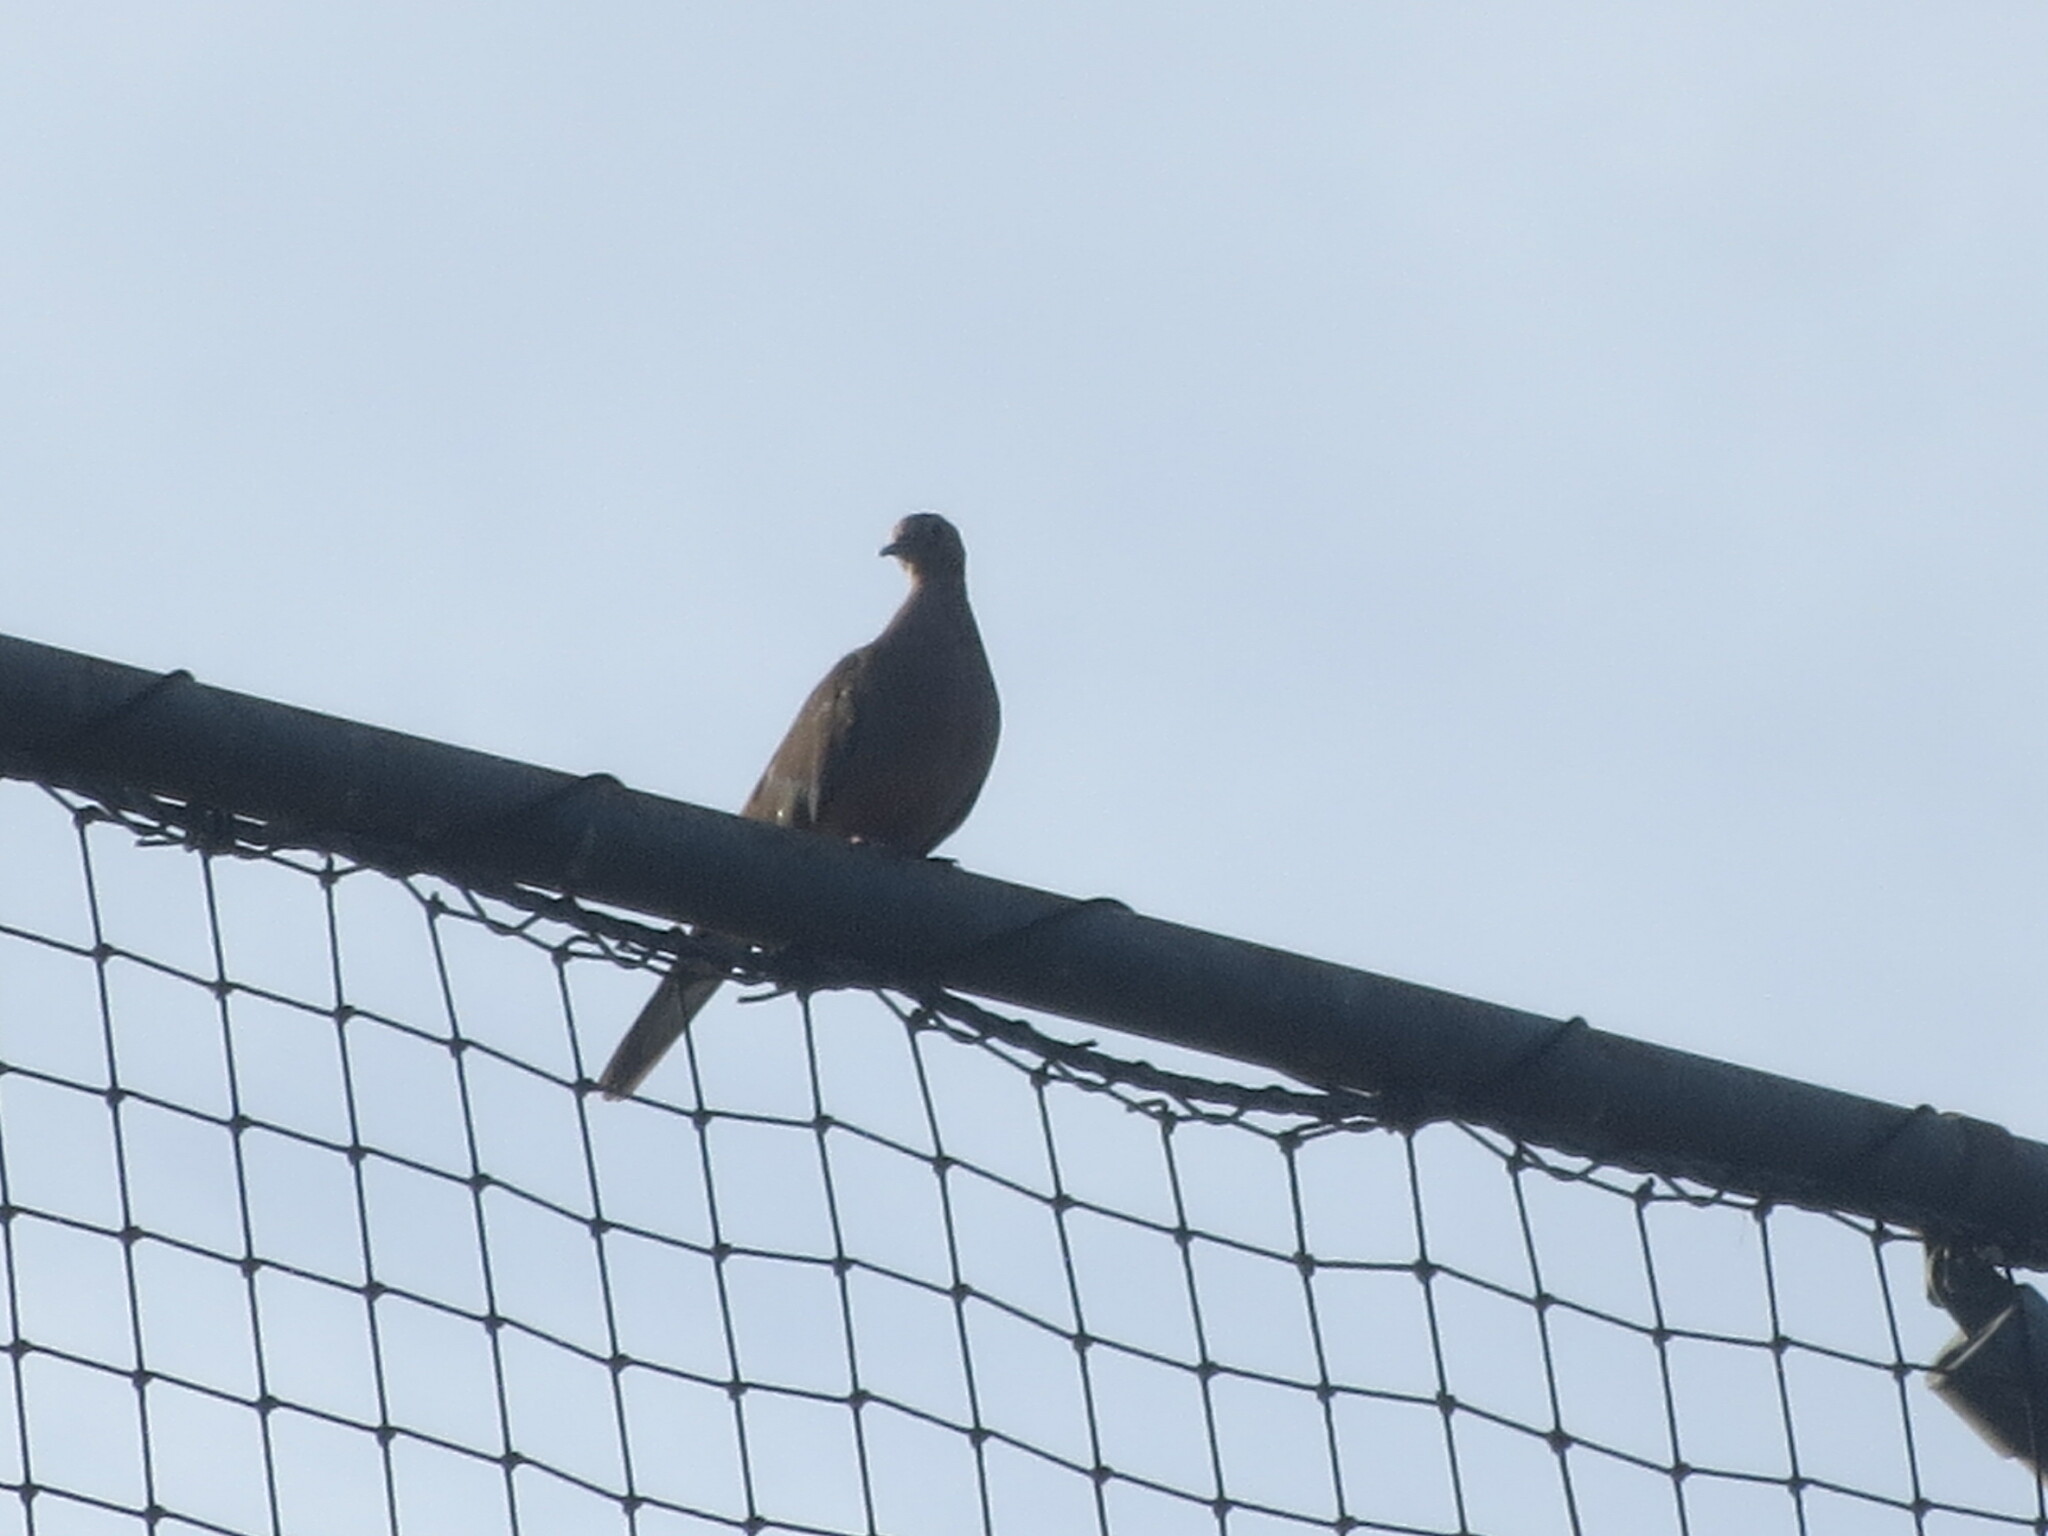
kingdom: Animalia
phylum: Chordata
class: Aves
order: Columbiformes
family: Columbidae
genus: Zenaida
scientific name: Zenaida macroura
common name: Mourning dove
